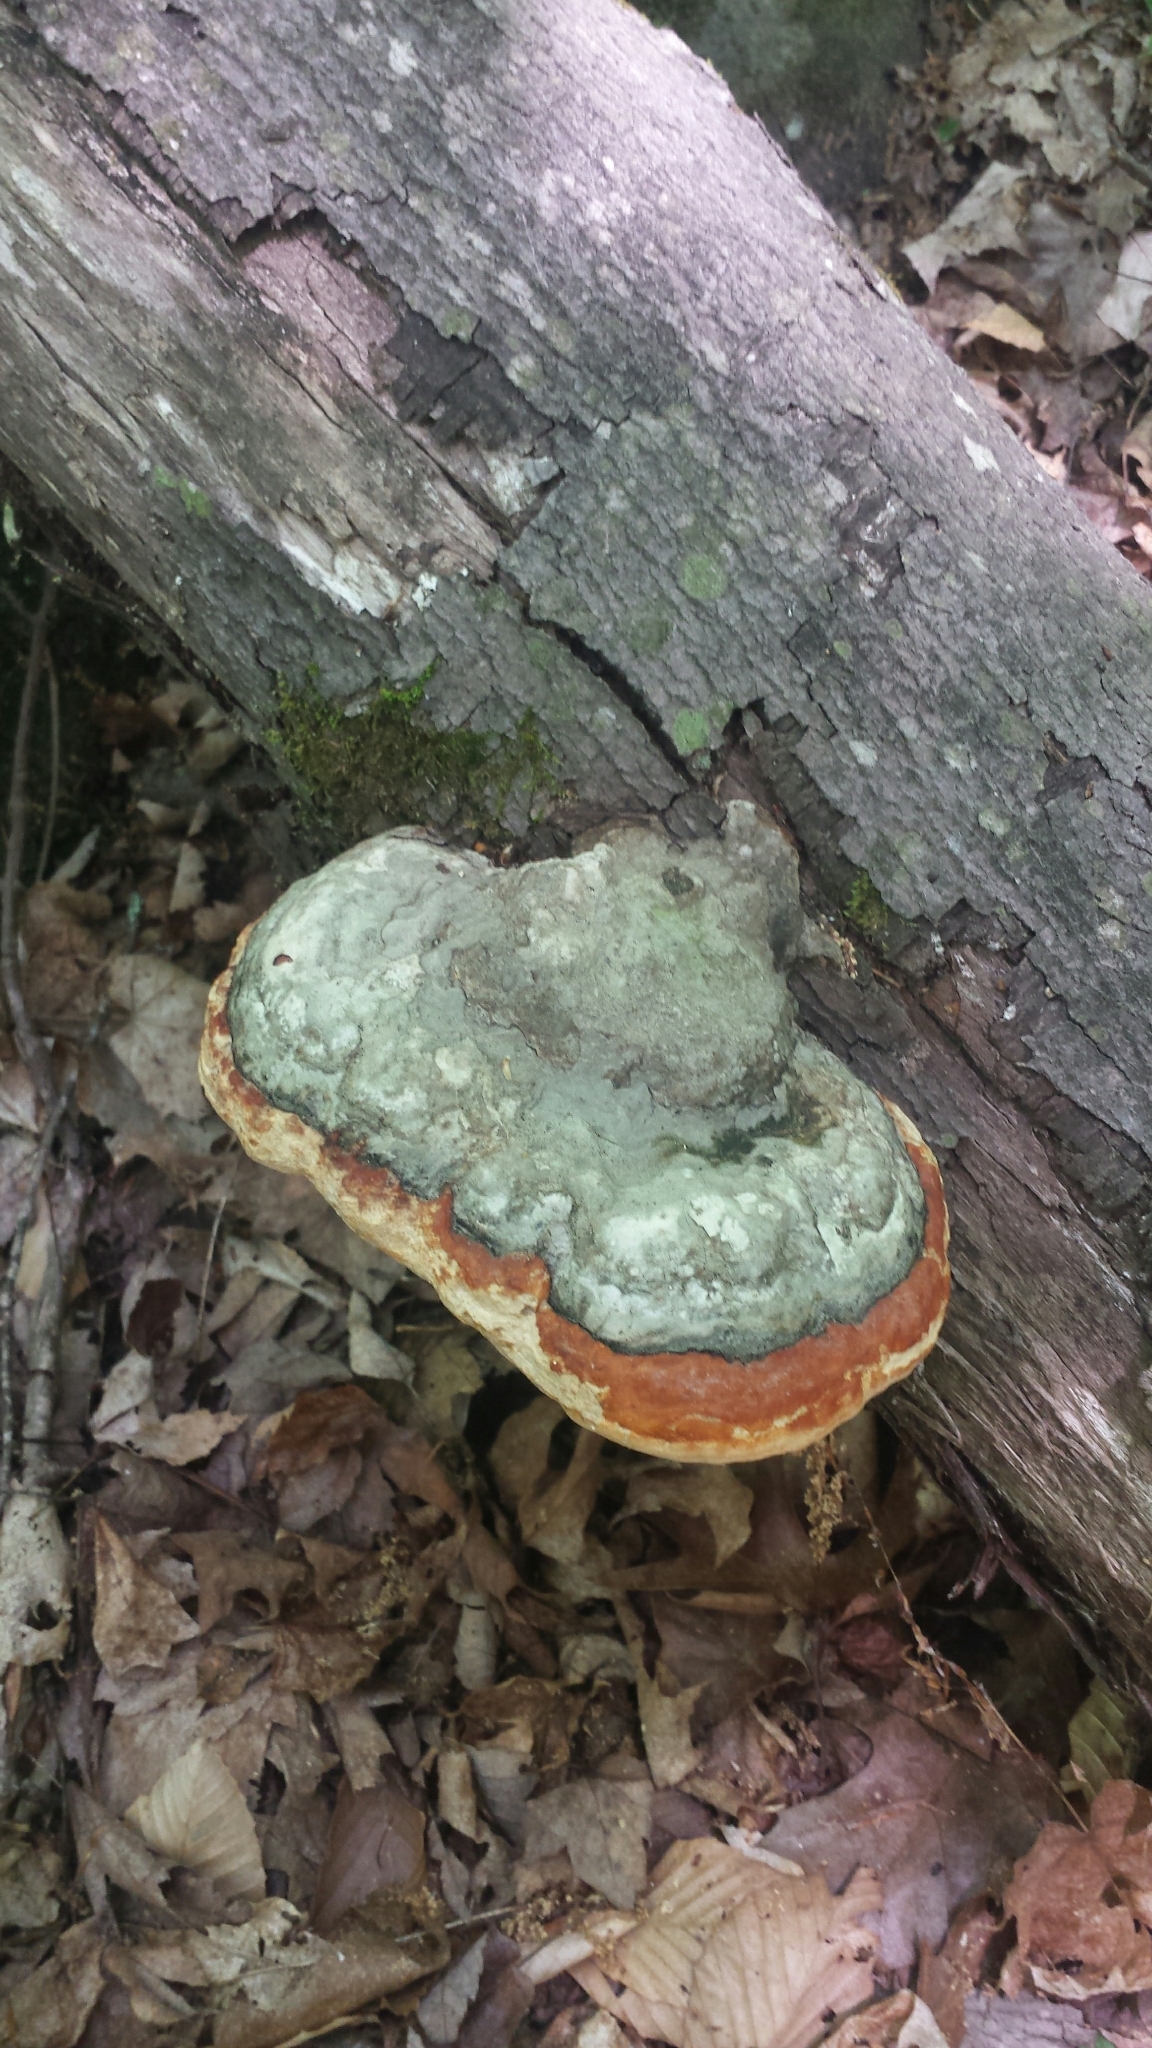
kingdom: Fungi
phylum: Basidiomycota
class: Agaricomycetes
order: Polyporales
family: Fomitopsidaceae
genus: Fomitopsis
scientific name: Fomitopsis mounceae
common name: Northern red belt
